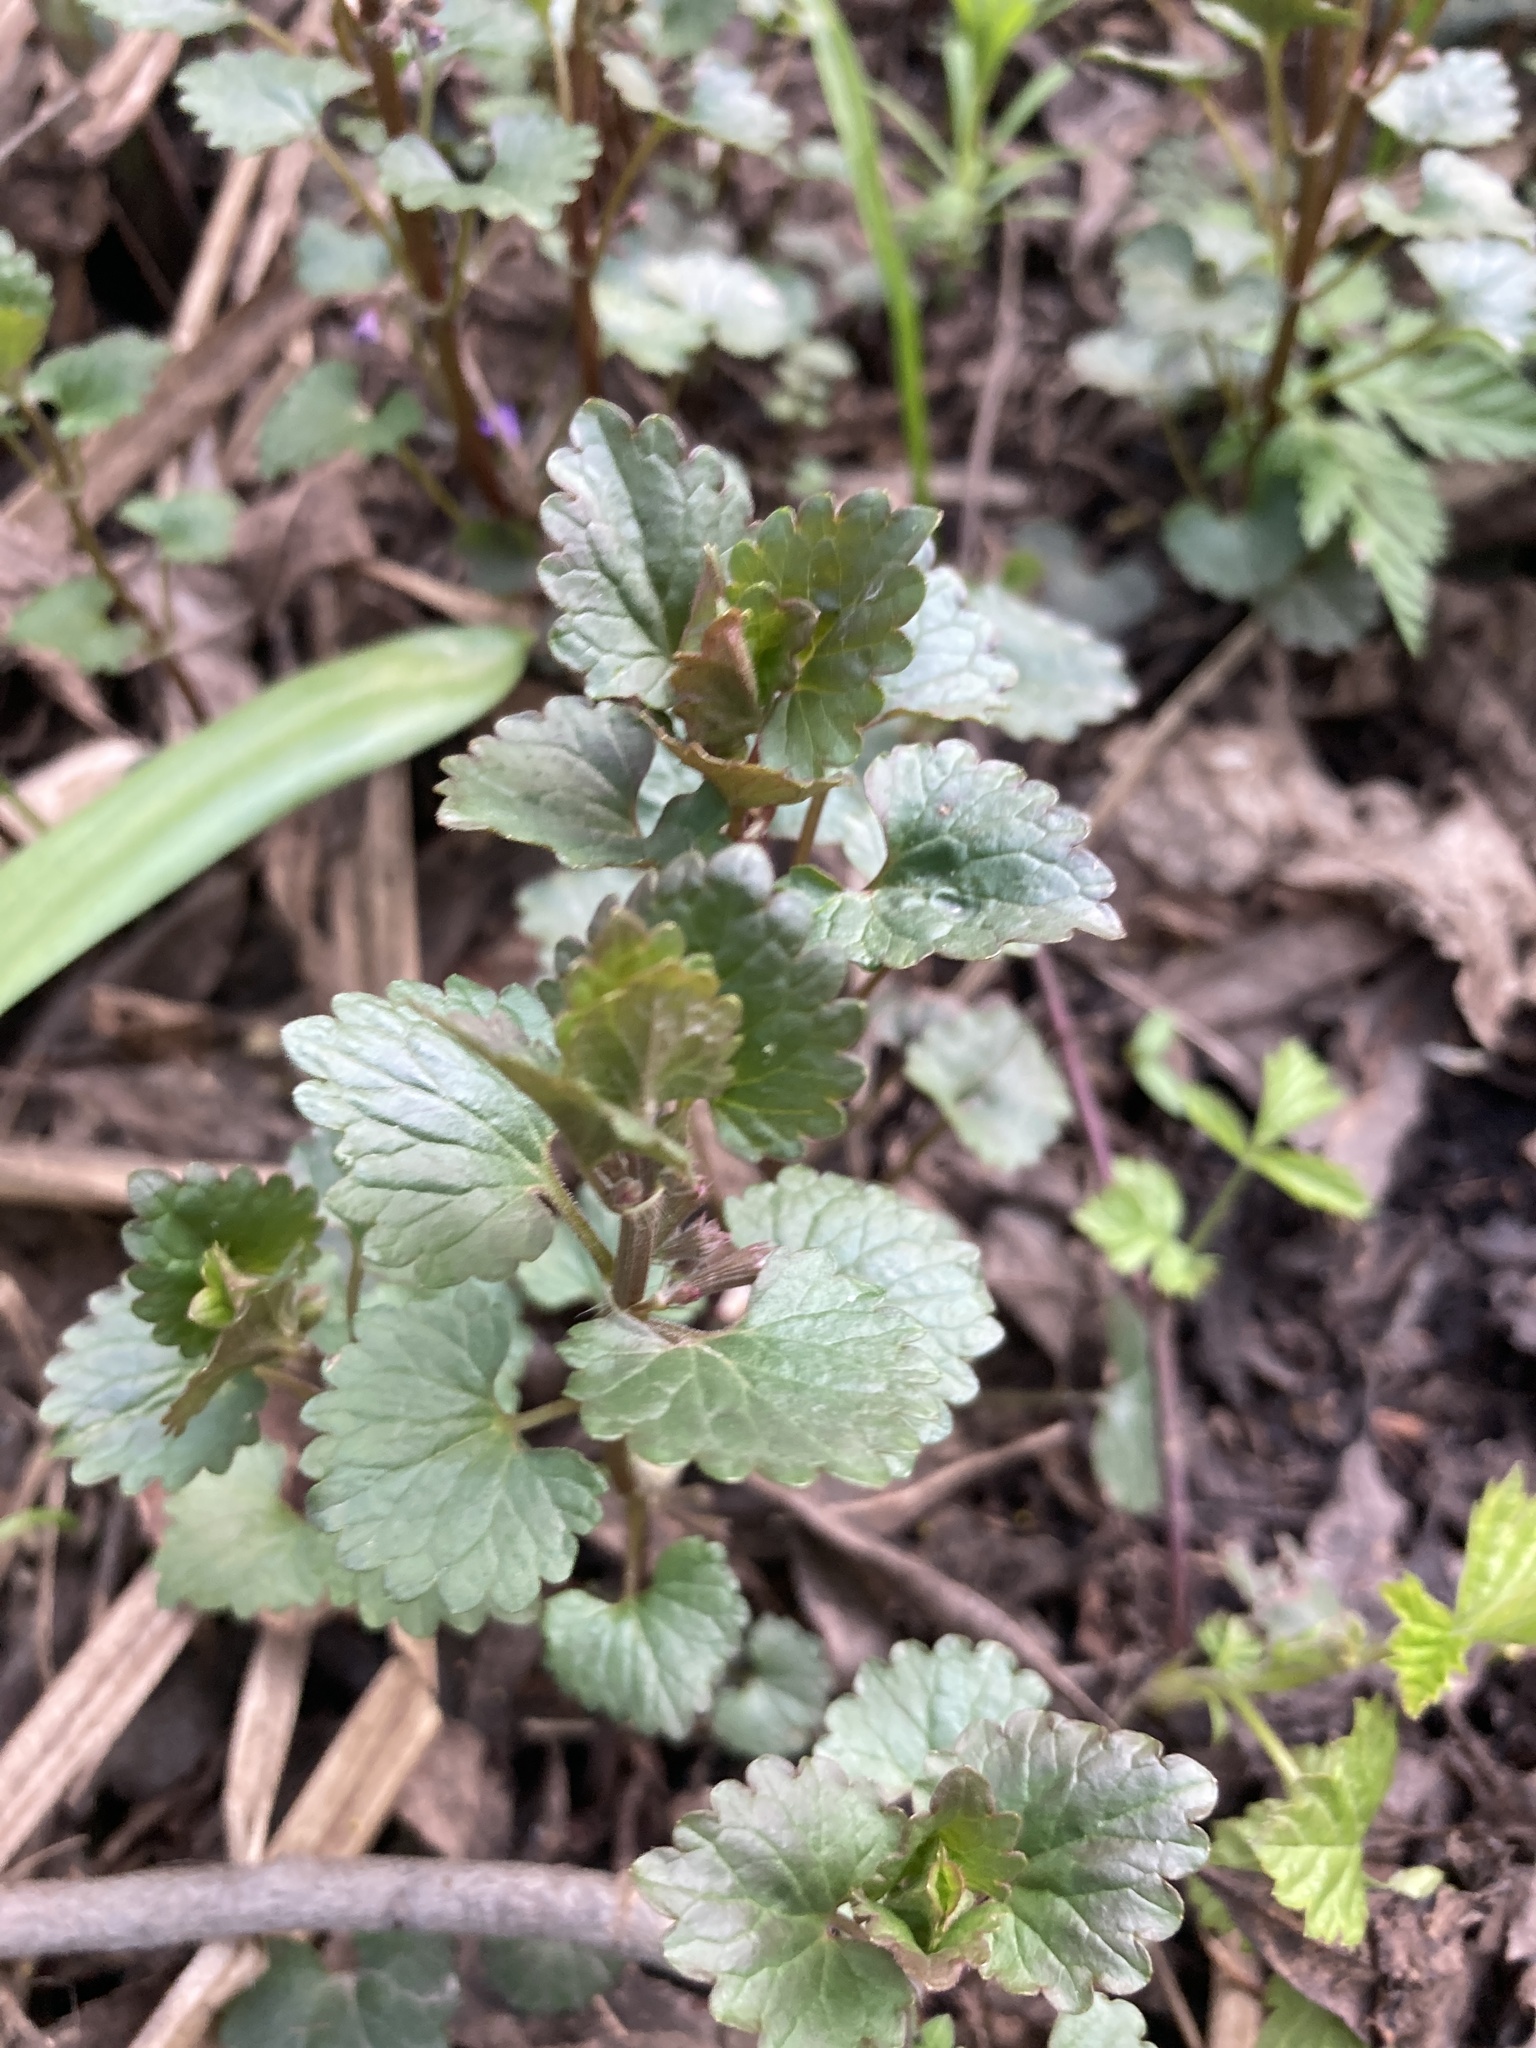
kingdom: Plantae
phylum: Tracheophyta
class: Magnoliopsida
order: Lamiales
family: Lamiaceae
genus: Glechoma
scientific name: Glechoma hederacea
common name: Ground ivy
